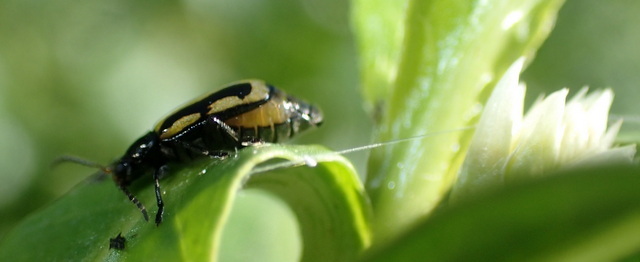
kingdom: Animalia
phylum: Arthropoda
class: Insecta
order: Coleoptera
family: Chrysomelidae
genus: Agasicles
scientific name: Agasicles hygrophila
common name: Alligatorweed flea beetle
